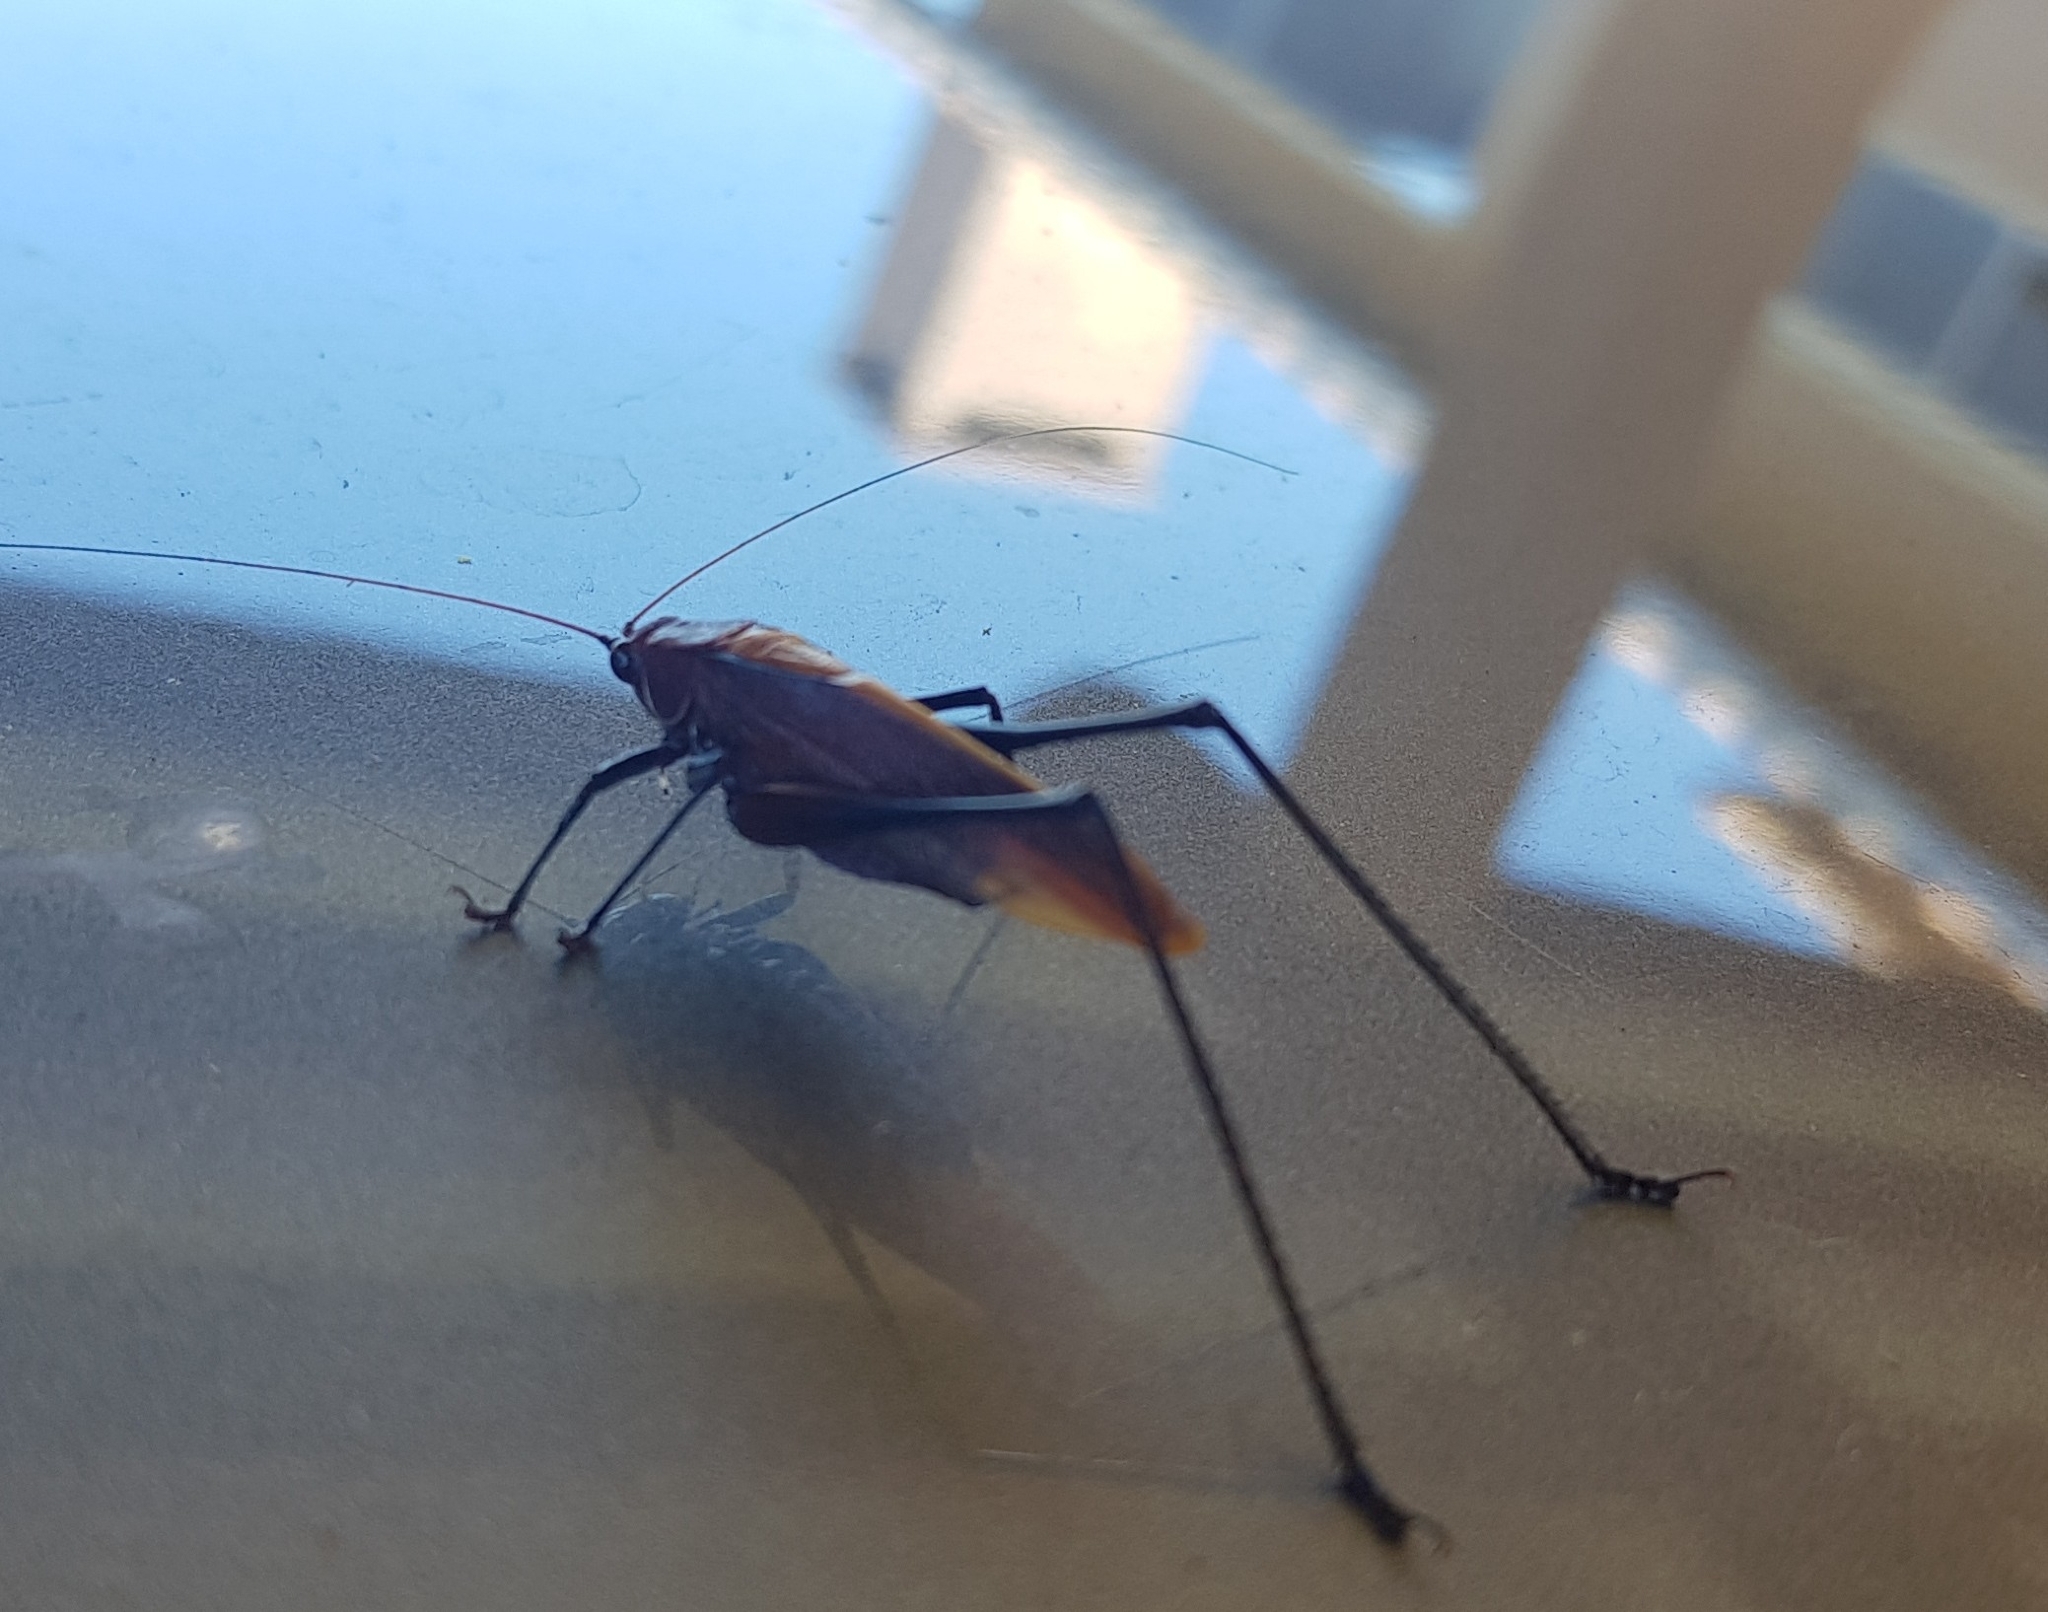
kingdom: Animalia
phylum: Arthropoda
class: Insecta
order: Orthoptera
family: Tettigoniidae
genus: Theudoria
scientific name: Theudoria melanocnemis
